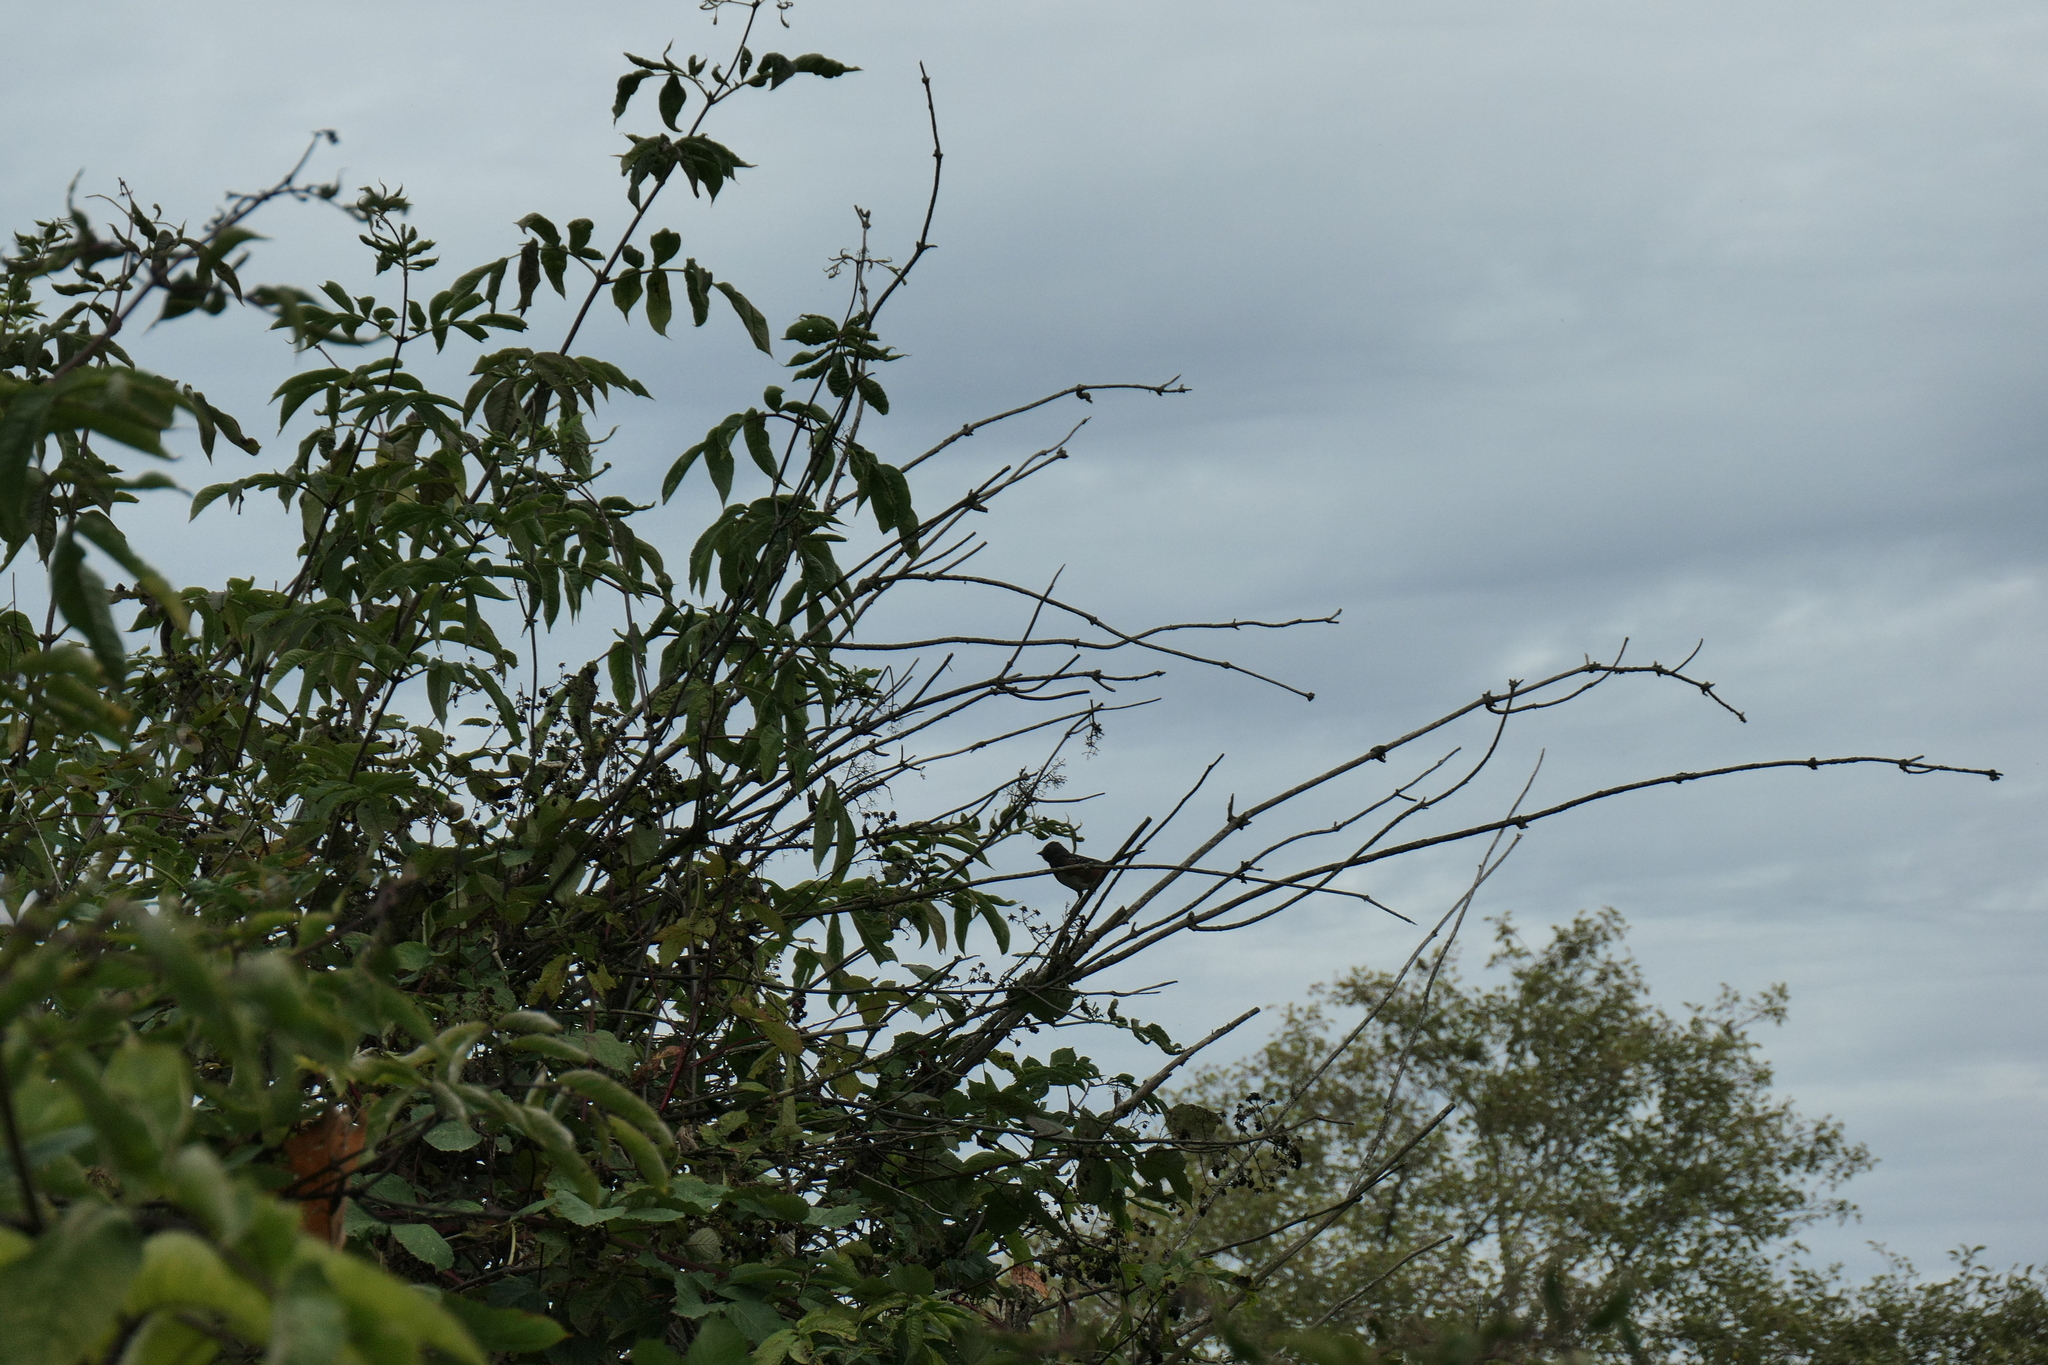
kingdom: Animalia
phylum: Chordata
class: Aves
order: Passeriformes
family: Passerellidae
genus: Pipilo
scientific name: Pipilo maculatus
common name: Spotted towhee
